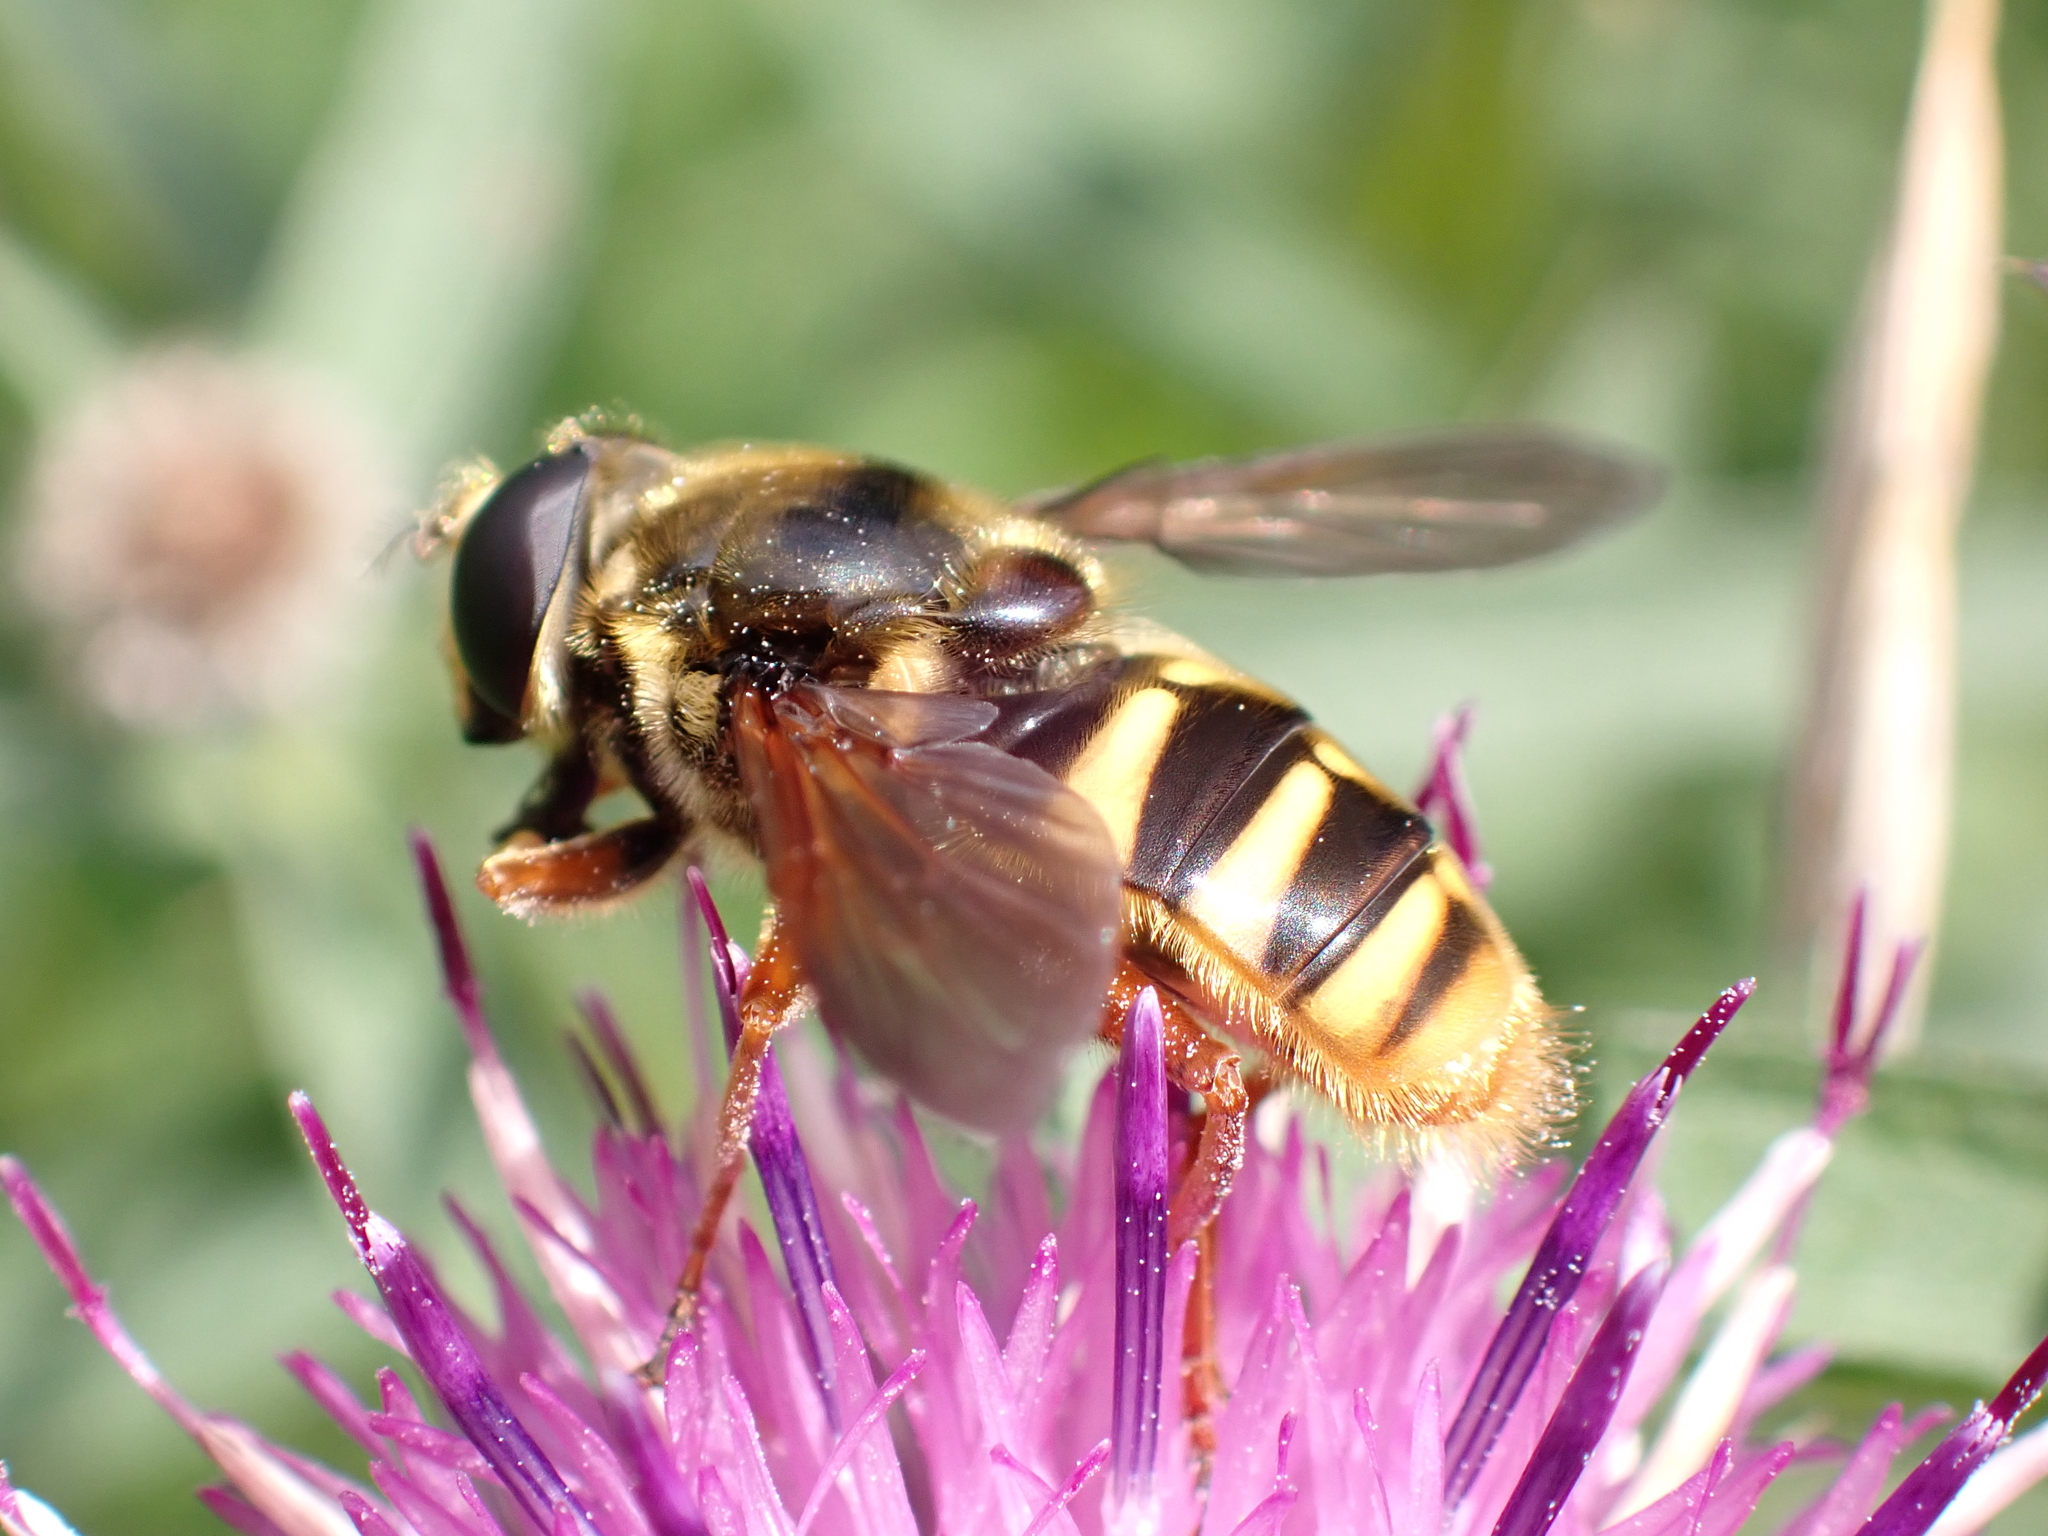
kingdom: Animalia
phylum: Arthropoda
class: Insecta
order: Diptera
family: Syrphidae
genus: Sericomyia
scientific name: Sericomyia silentis
